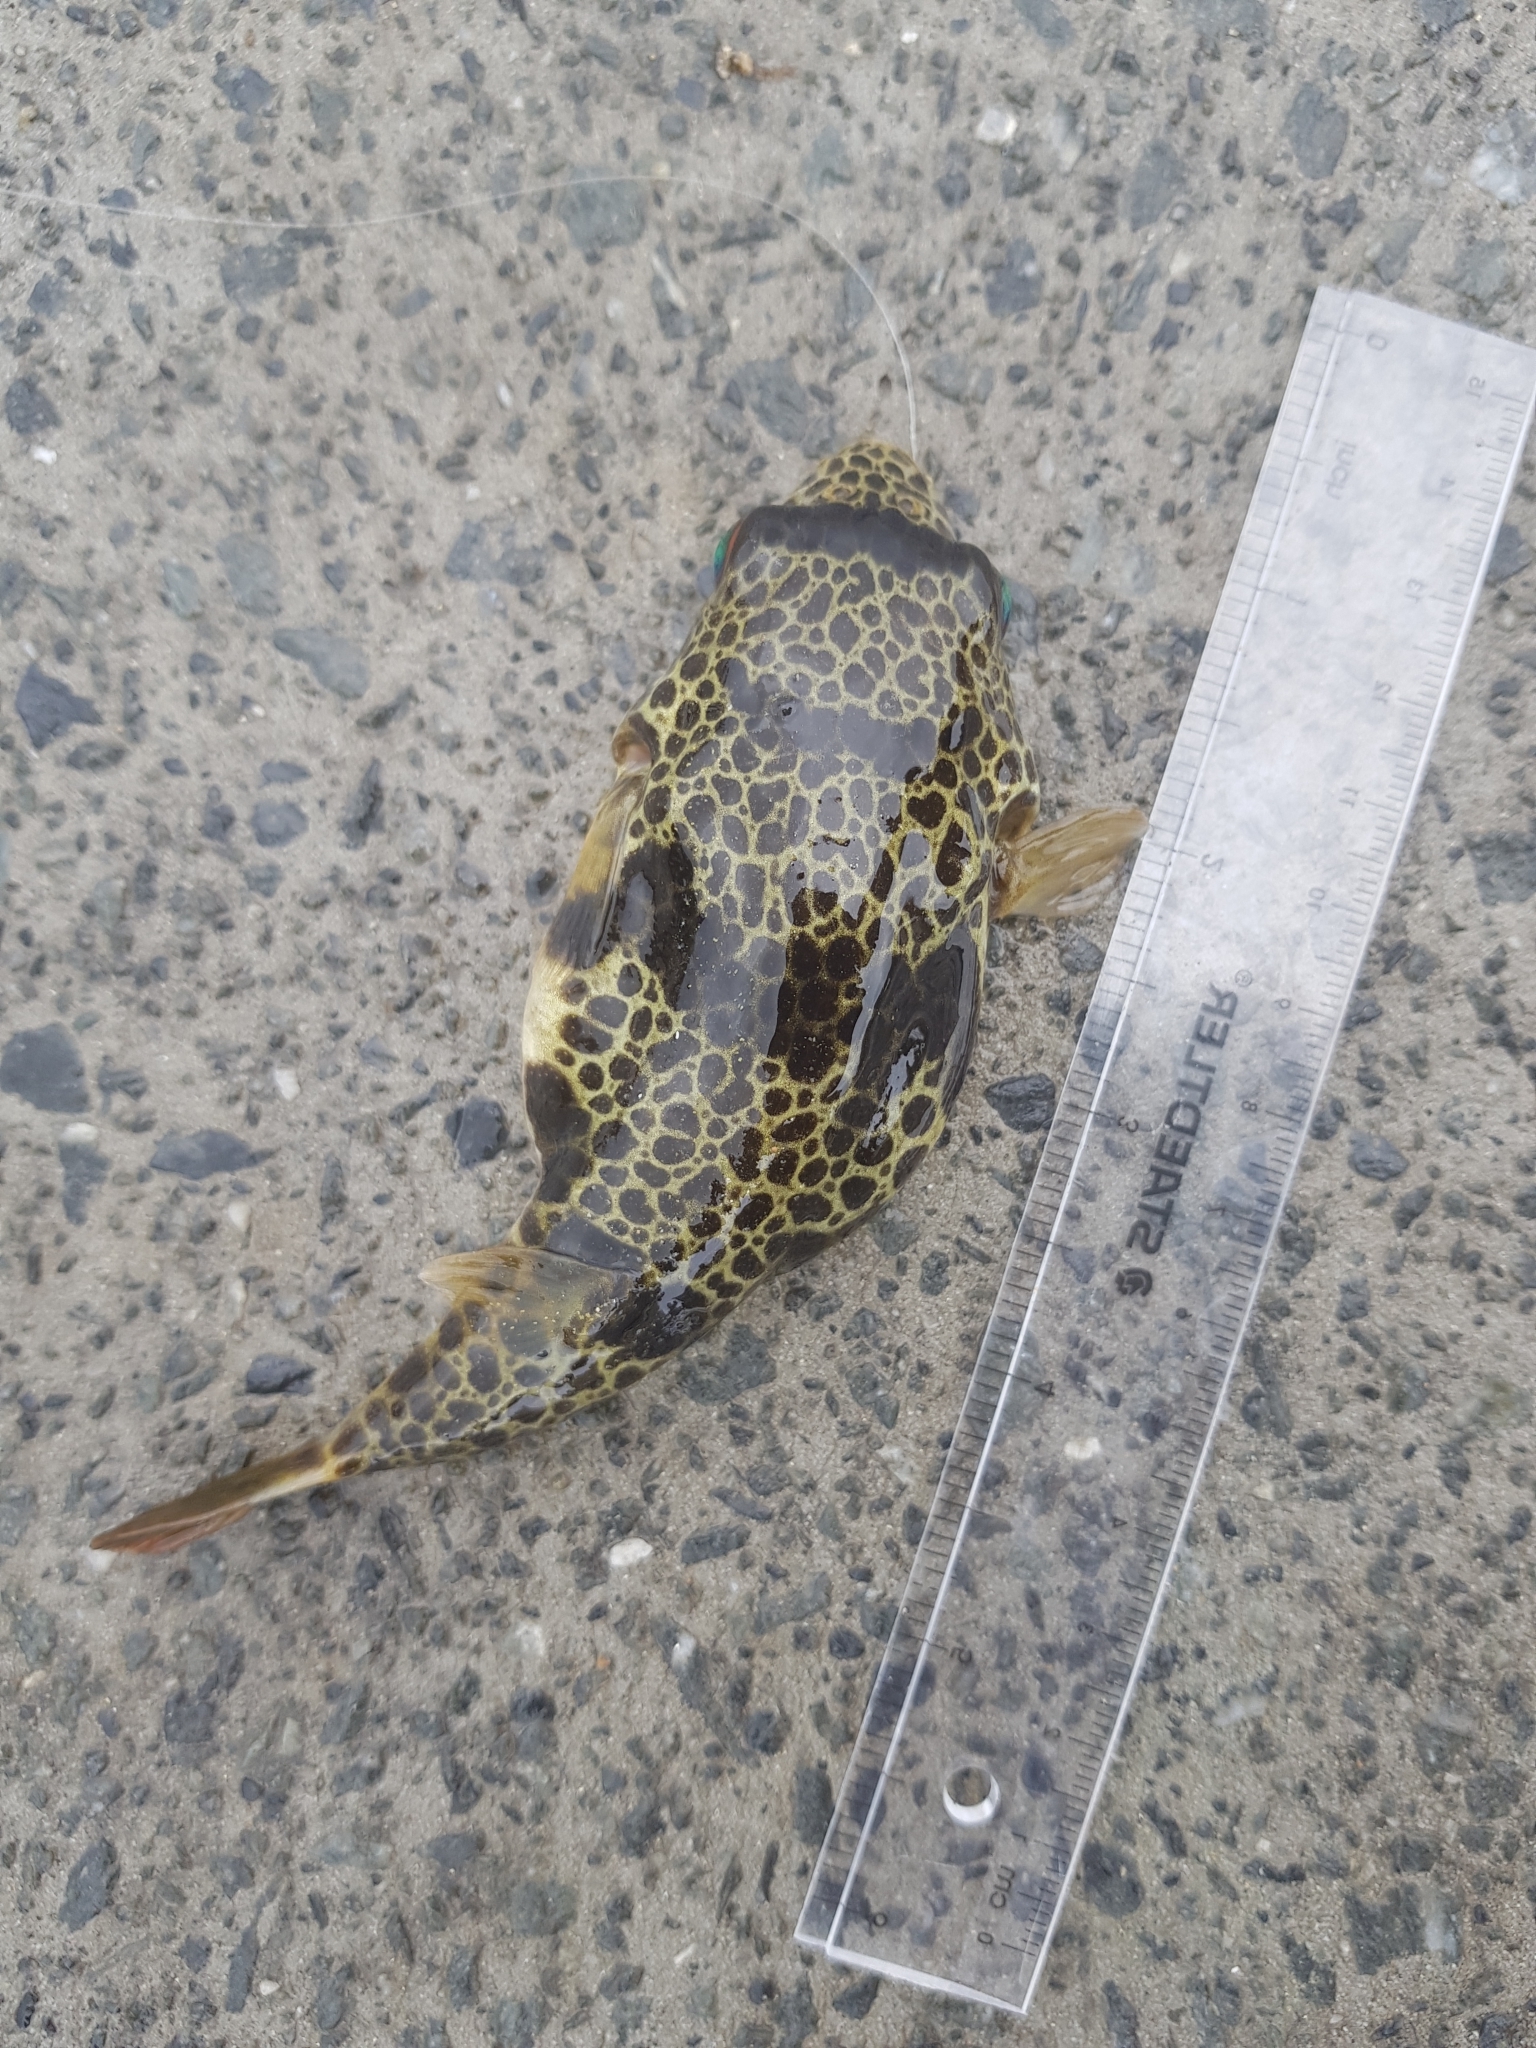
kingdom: Animalia
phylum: Chordata
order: Tetraodontiformes
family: Tetraodontidae
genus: Tetractenos
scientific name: Tetractenos glaber
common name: Smooth toadfish
